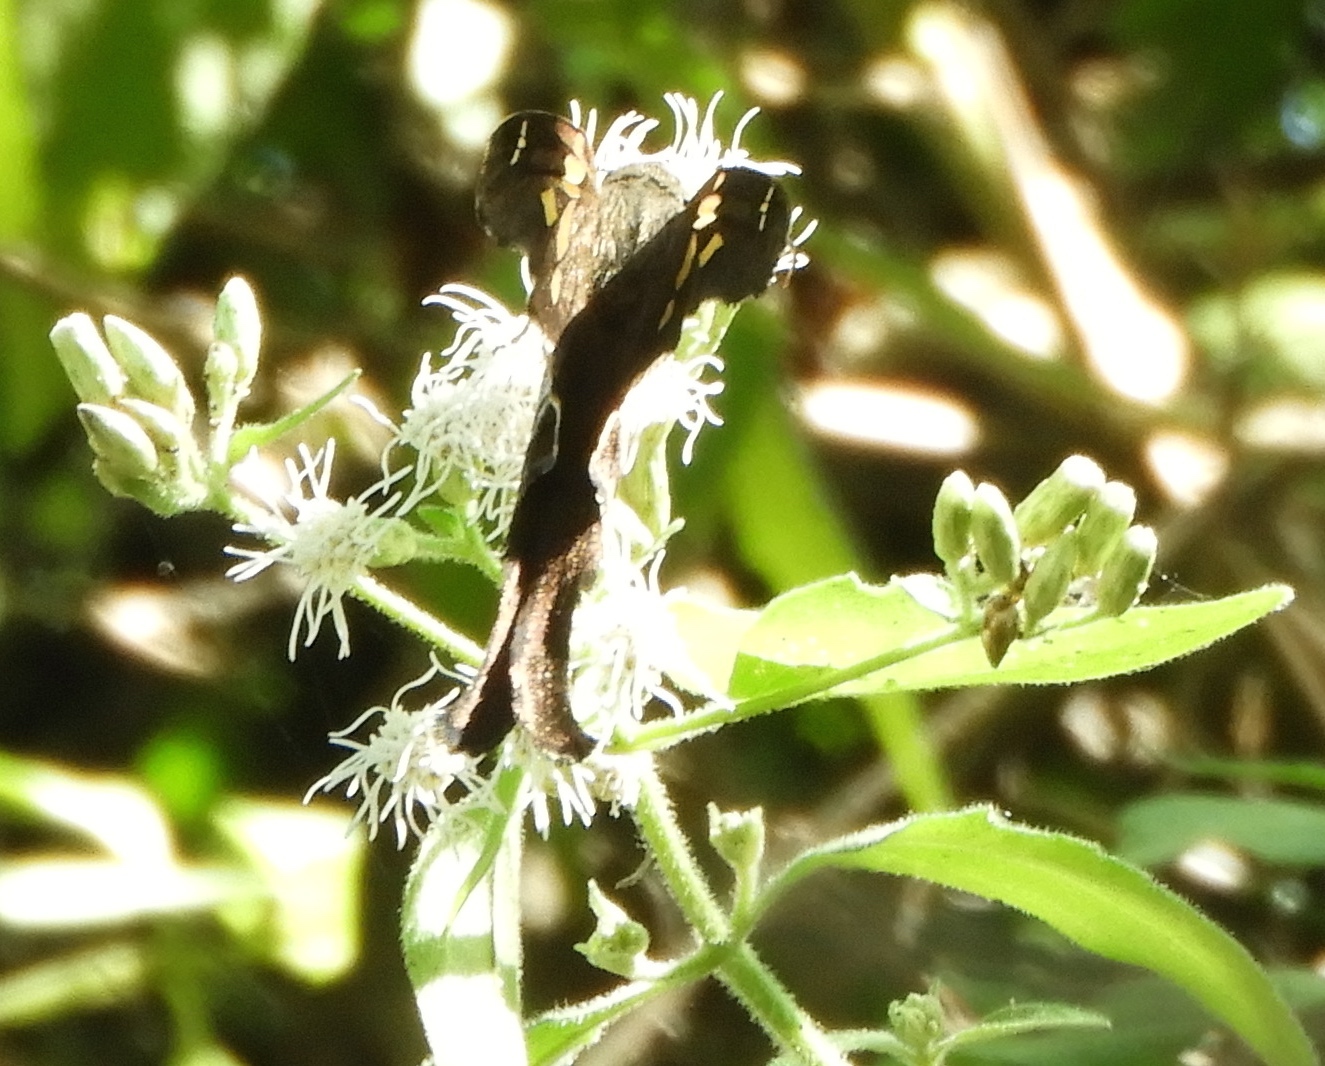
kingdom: Animalia
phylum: Arthropoda
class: Insecta
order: Lepidoptera
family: Hesperiidae
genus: Chioides
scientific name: Chioides zilpa
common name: Zilpa longtail
